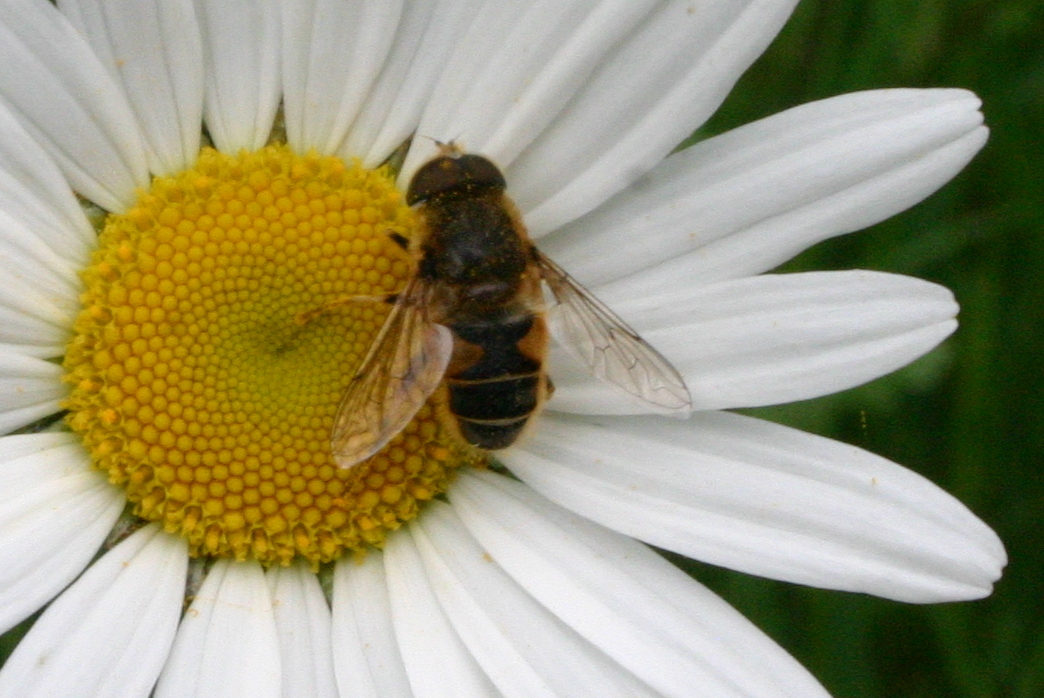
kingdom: Animalia
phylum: Arthropoda
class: Insecta
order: Diptera
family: Syrphidae
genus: Eristalis
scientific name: Eristalis nemorum
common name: Orange-spined drone fly
